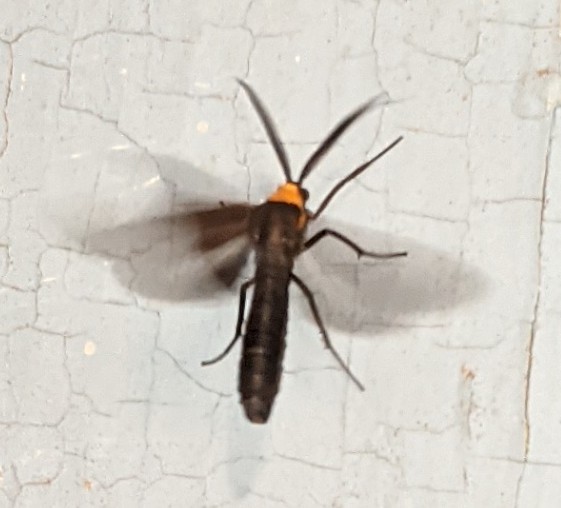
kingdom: Animalia
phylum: Arthropoda
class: Insecta
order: Lepidoptera
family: Erebidae
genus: Cisseps
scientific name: Cisseps fulvicollis
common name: Yellow-collared scape moth
